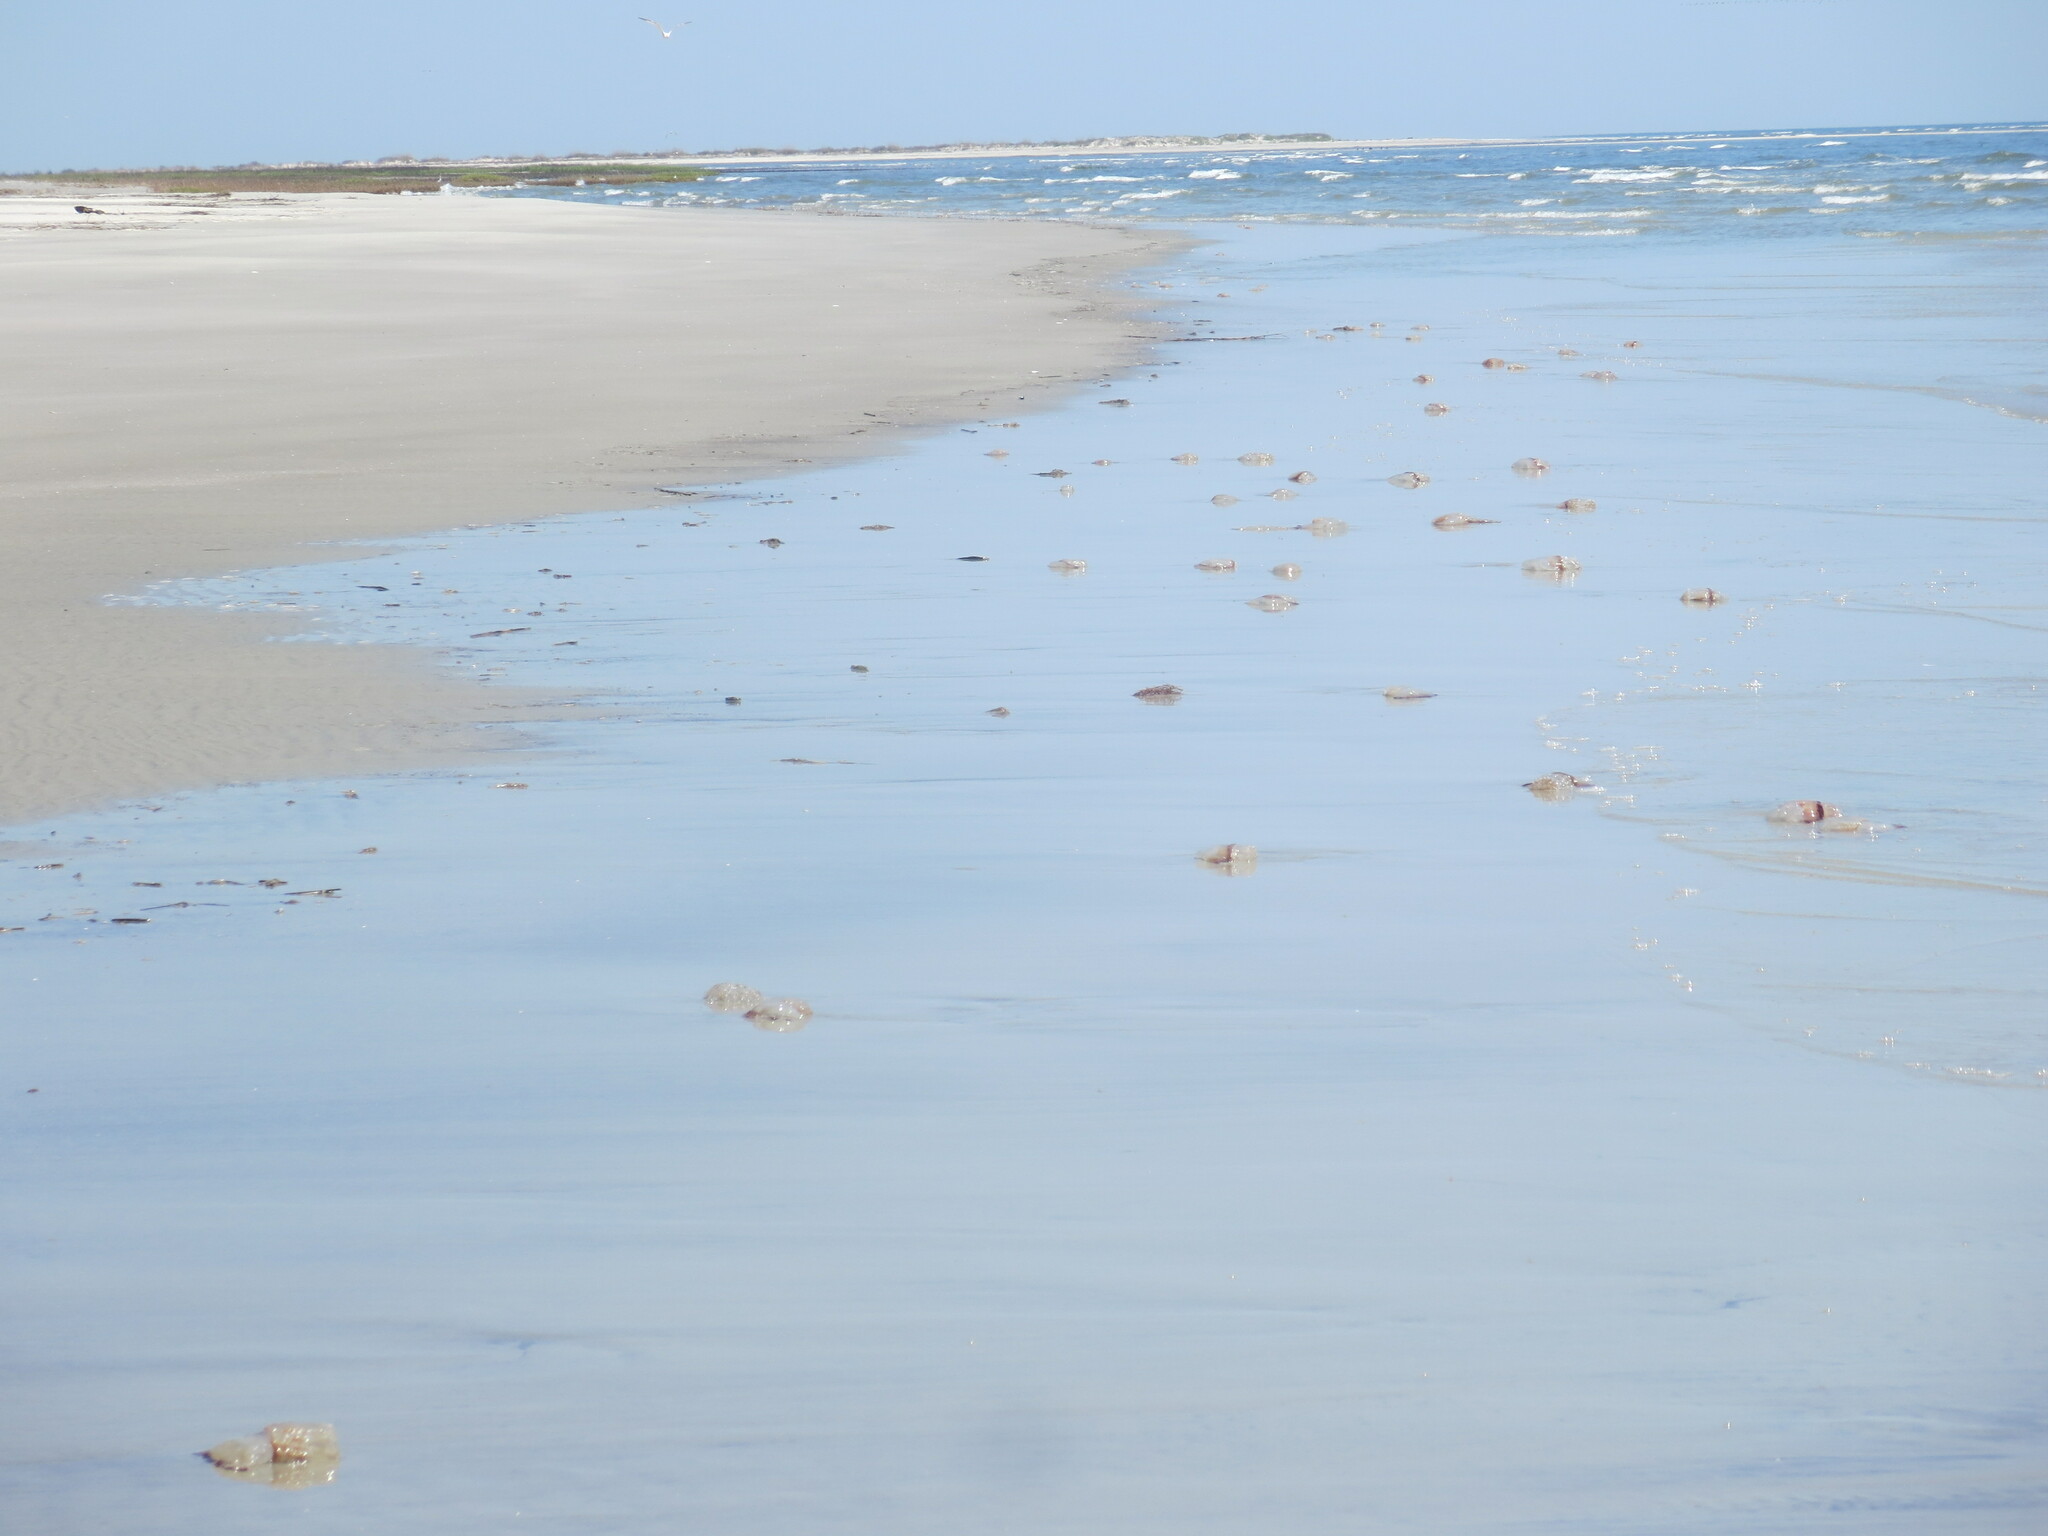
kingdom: Animalia
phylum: Cnidaria
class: Scyphozoa
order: Rhizostomeae
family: Stomolophidae
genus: Stomolophus
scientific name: Stomolophus meleagris
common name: Cabbagehead
